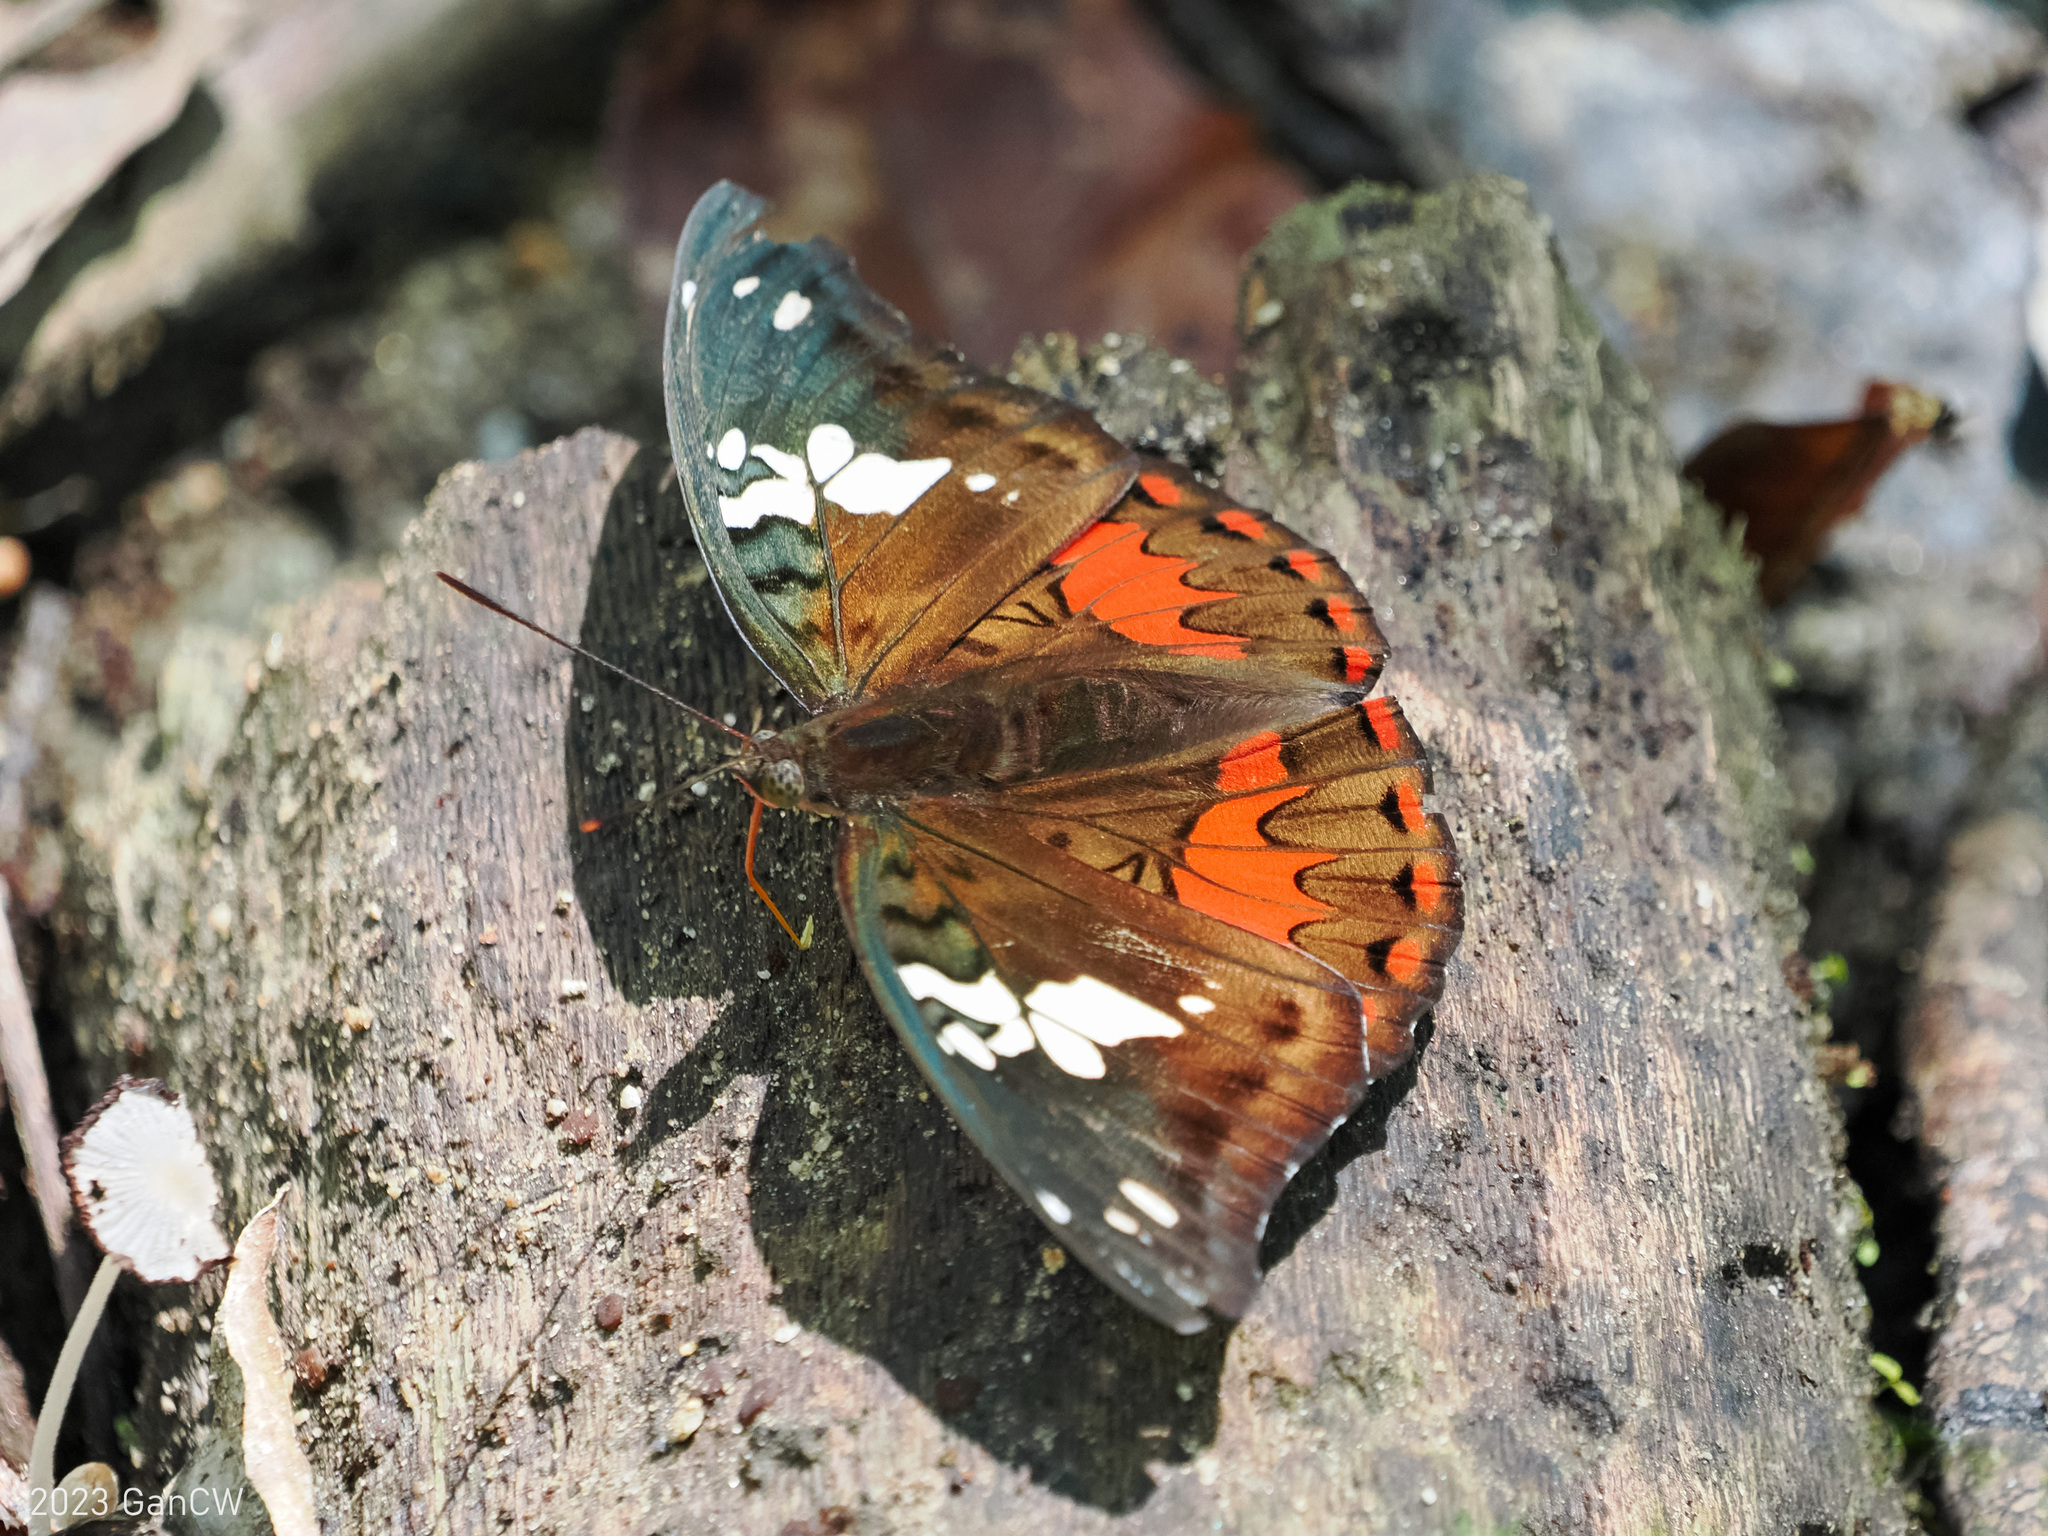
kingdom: Animalia
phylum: Arthropoda
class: Insecta
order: Lepidoptera
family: Nymphalidae
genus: Euthalia
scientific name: Euthalia amanda
